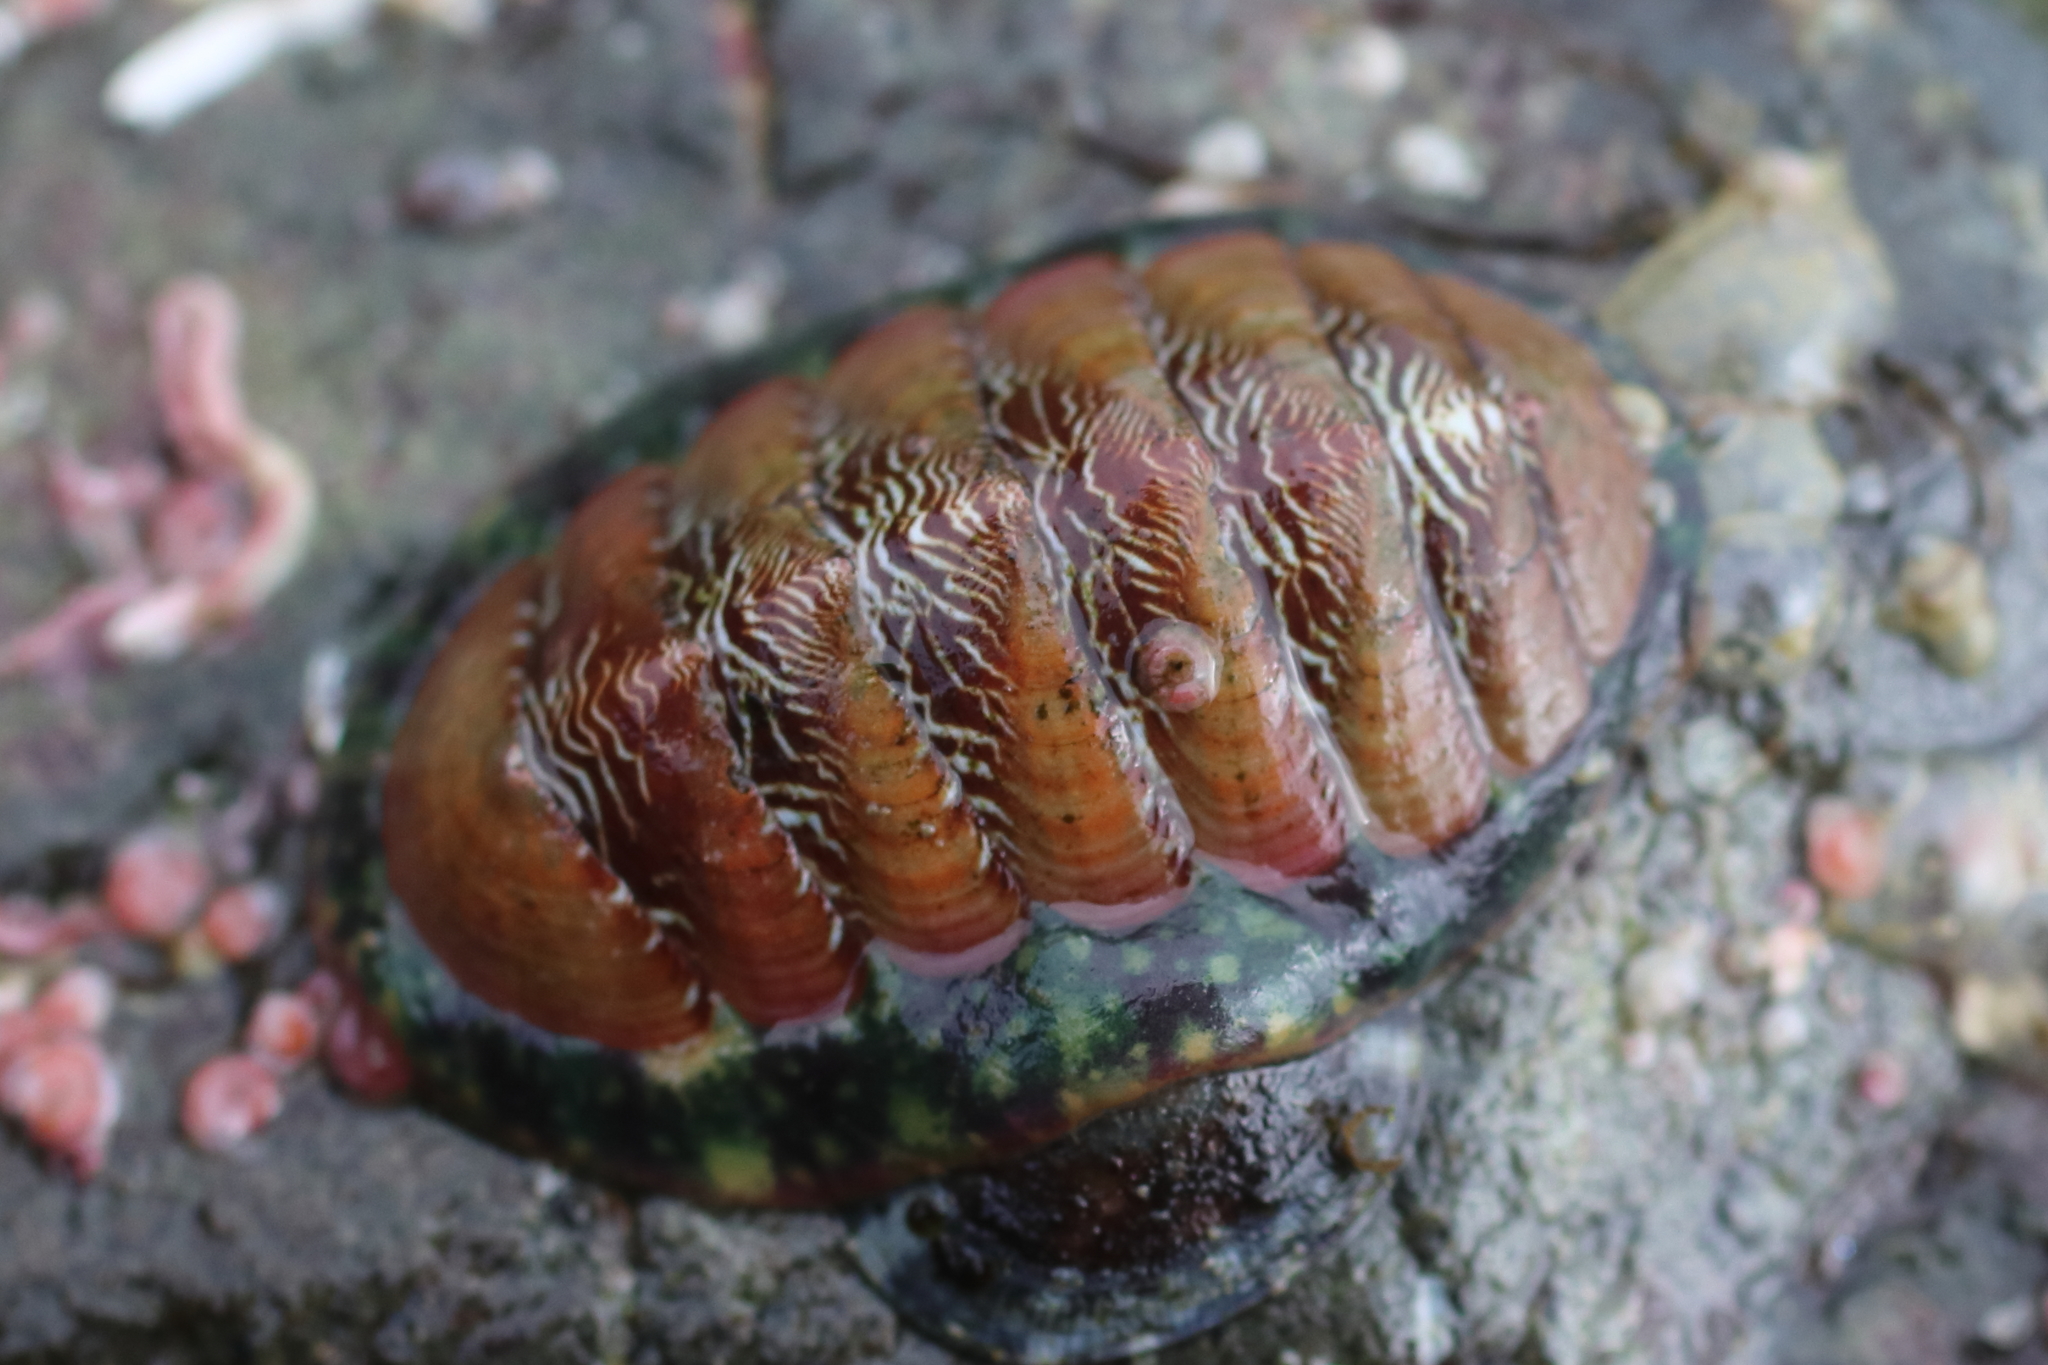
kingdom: Animalia
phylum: Mollusca
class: Polyplacophora
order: Chitonida
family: Tonicellidae
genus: Tonicella
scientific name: Tonicella insignis
